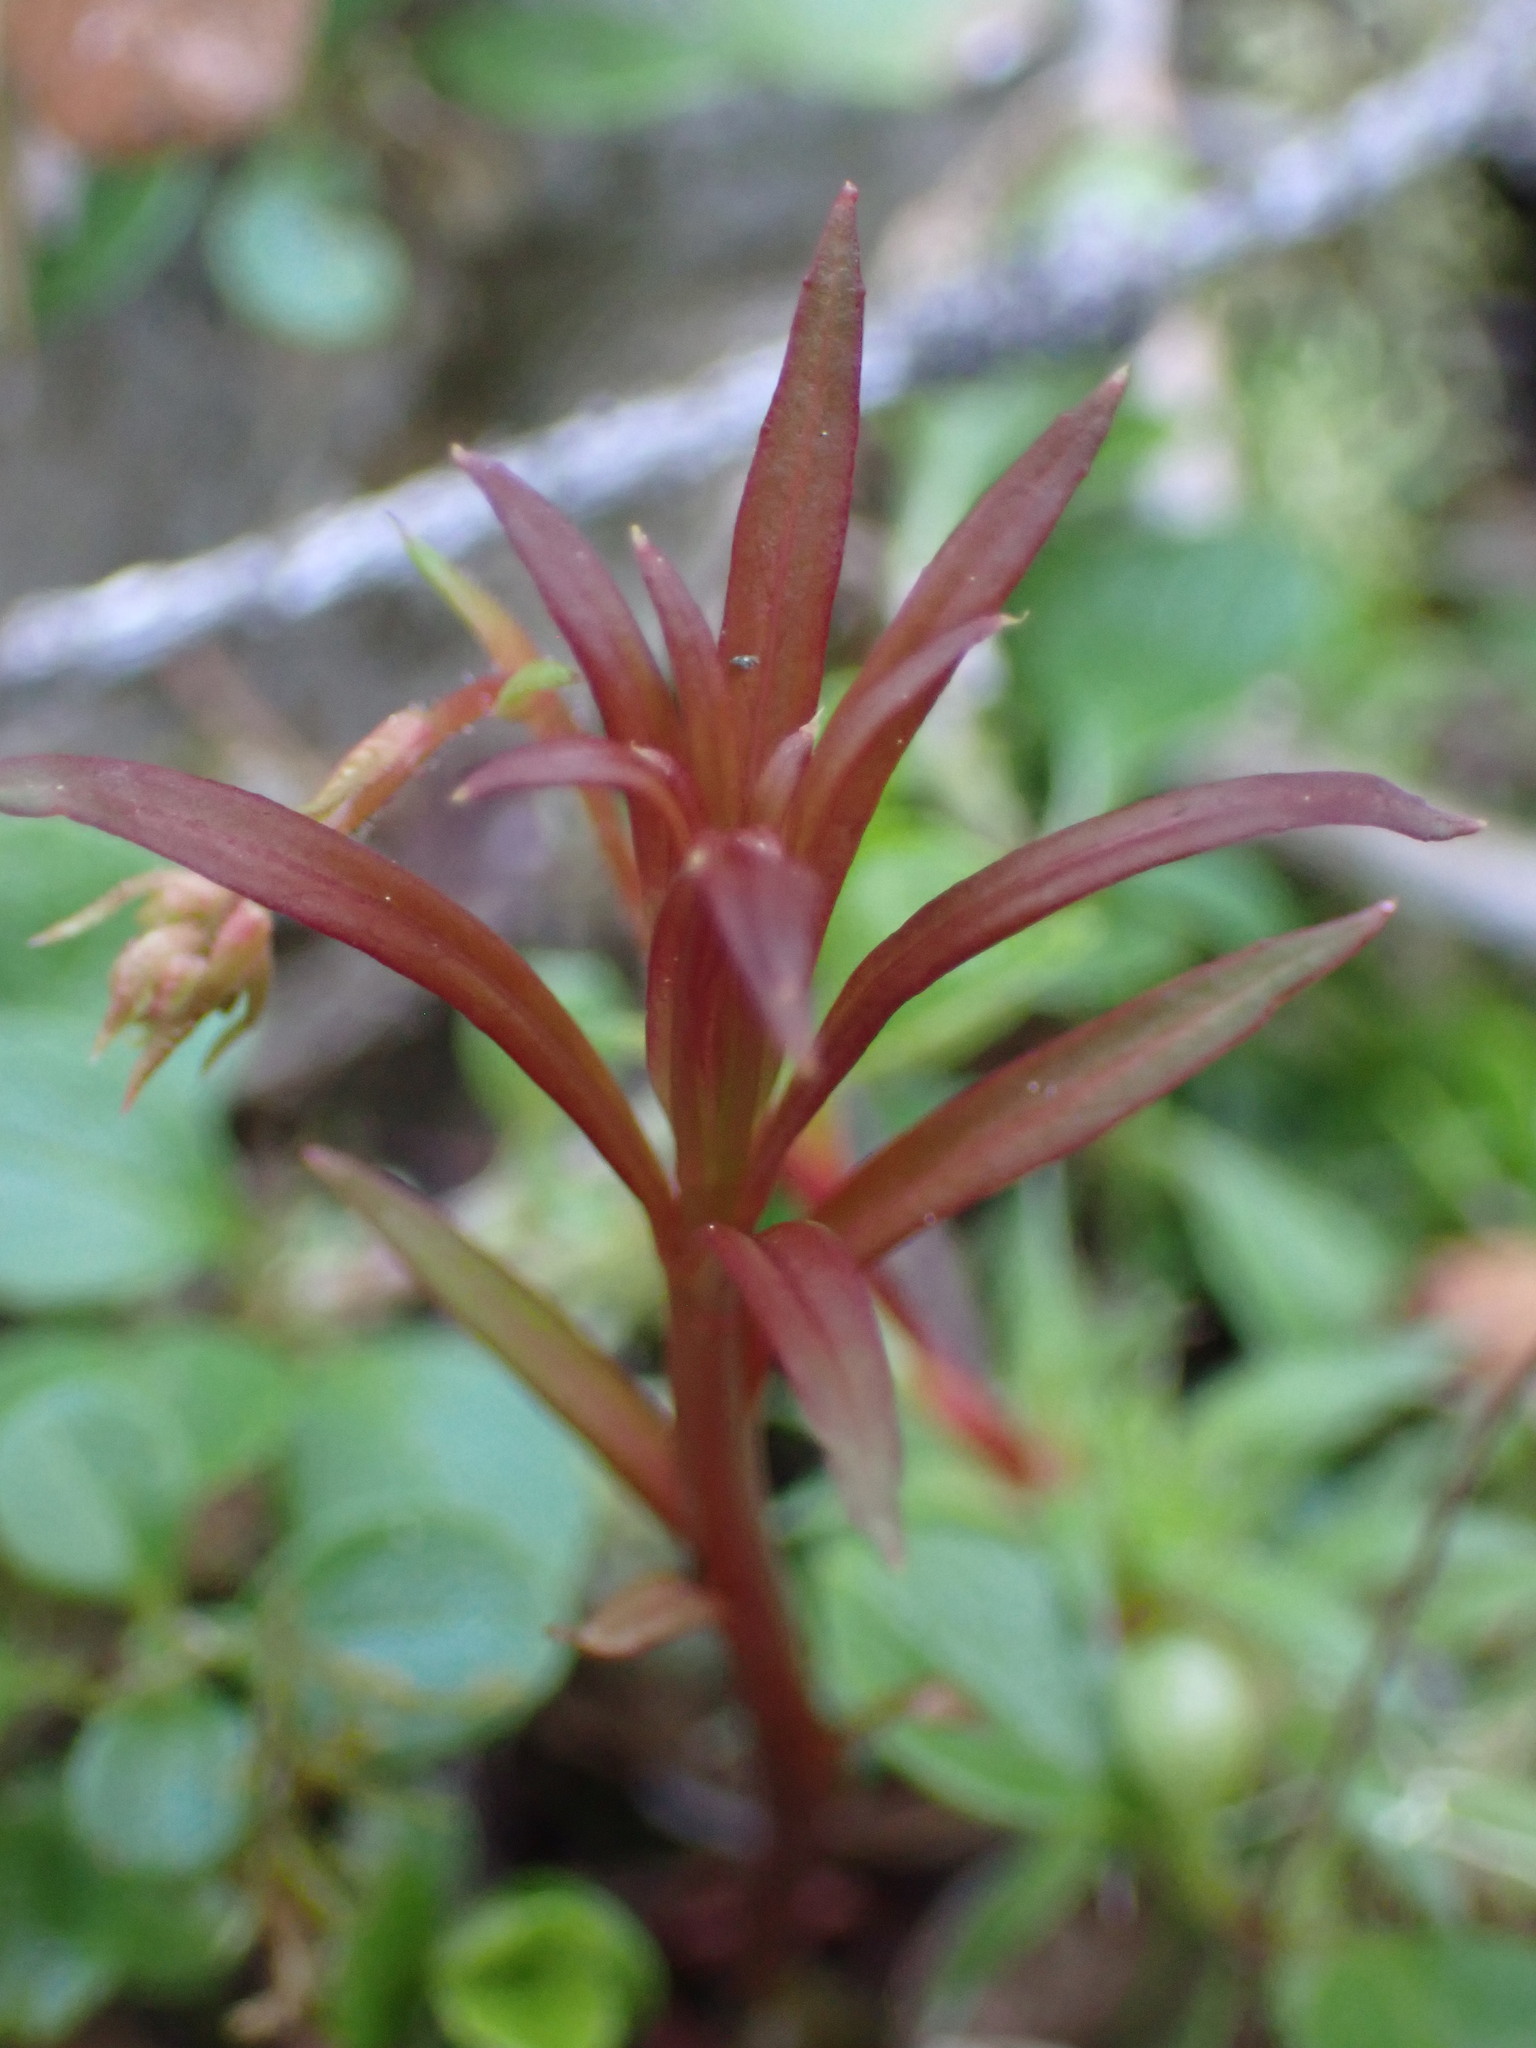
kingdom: Plantae
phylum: Tracheophyta
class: Magnoliopsida
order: Myrtales
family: Onagraceae
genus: Chamaenerion
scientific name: Chamaenerion angustifolium
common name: Fireweed
